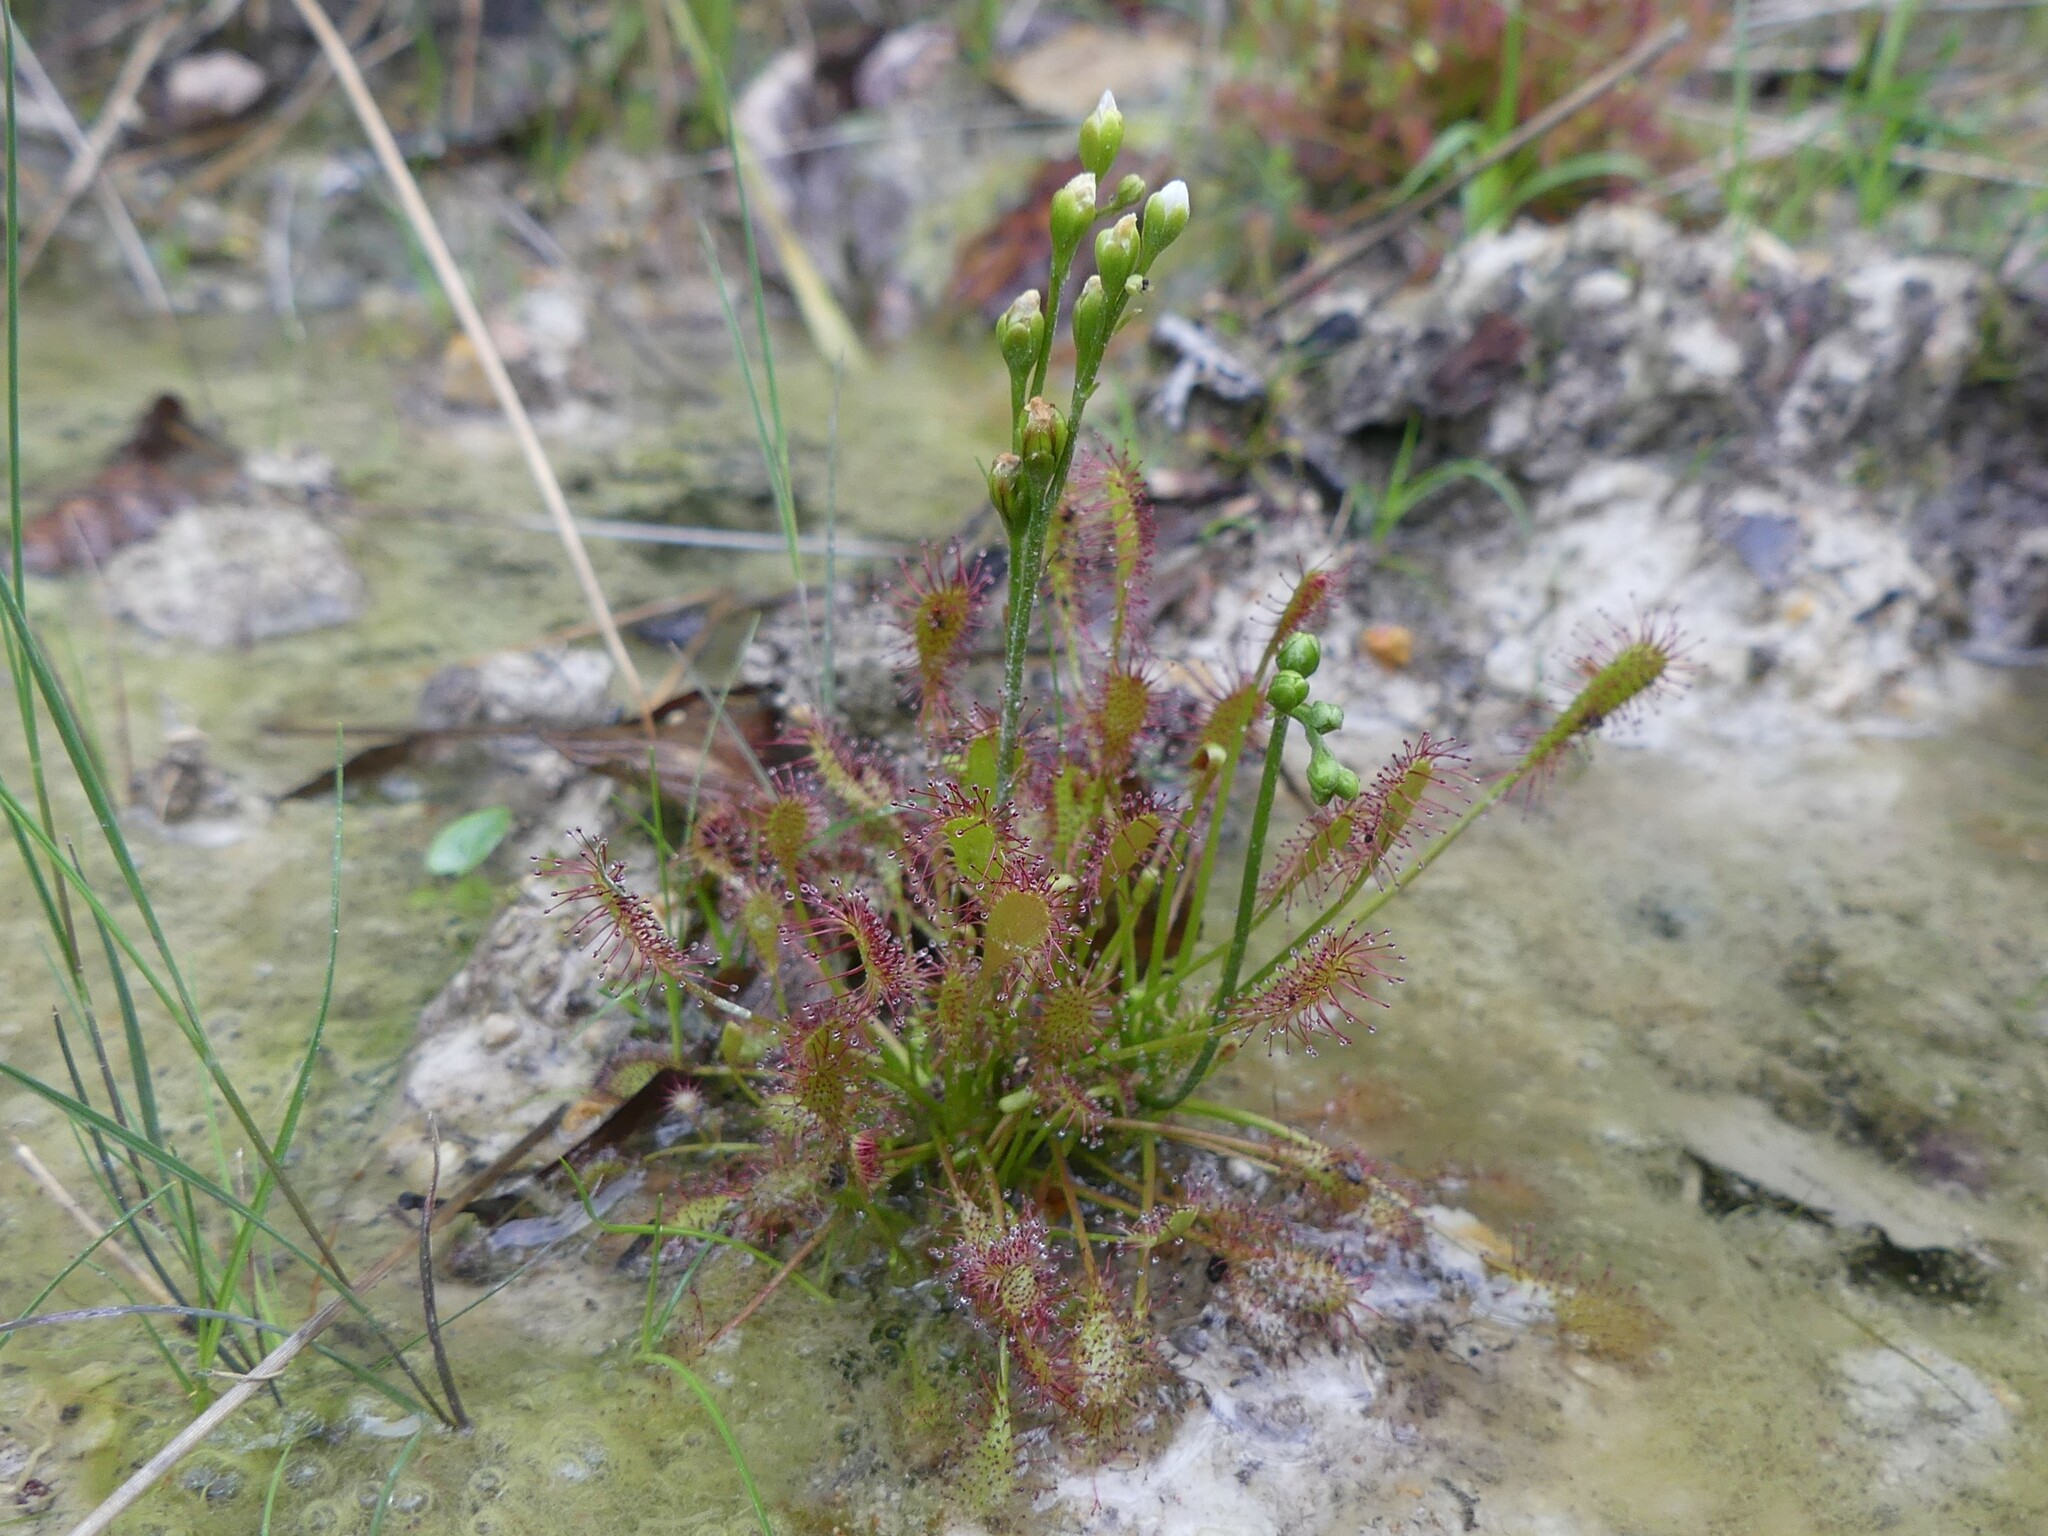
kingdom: Plantae
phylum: Tracheophyta
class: Magnoliopsida
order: Caryophyllales
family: Droseraceae
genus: Drosera
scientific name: Drosera intermedia
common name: Oblong-leaved sundew
